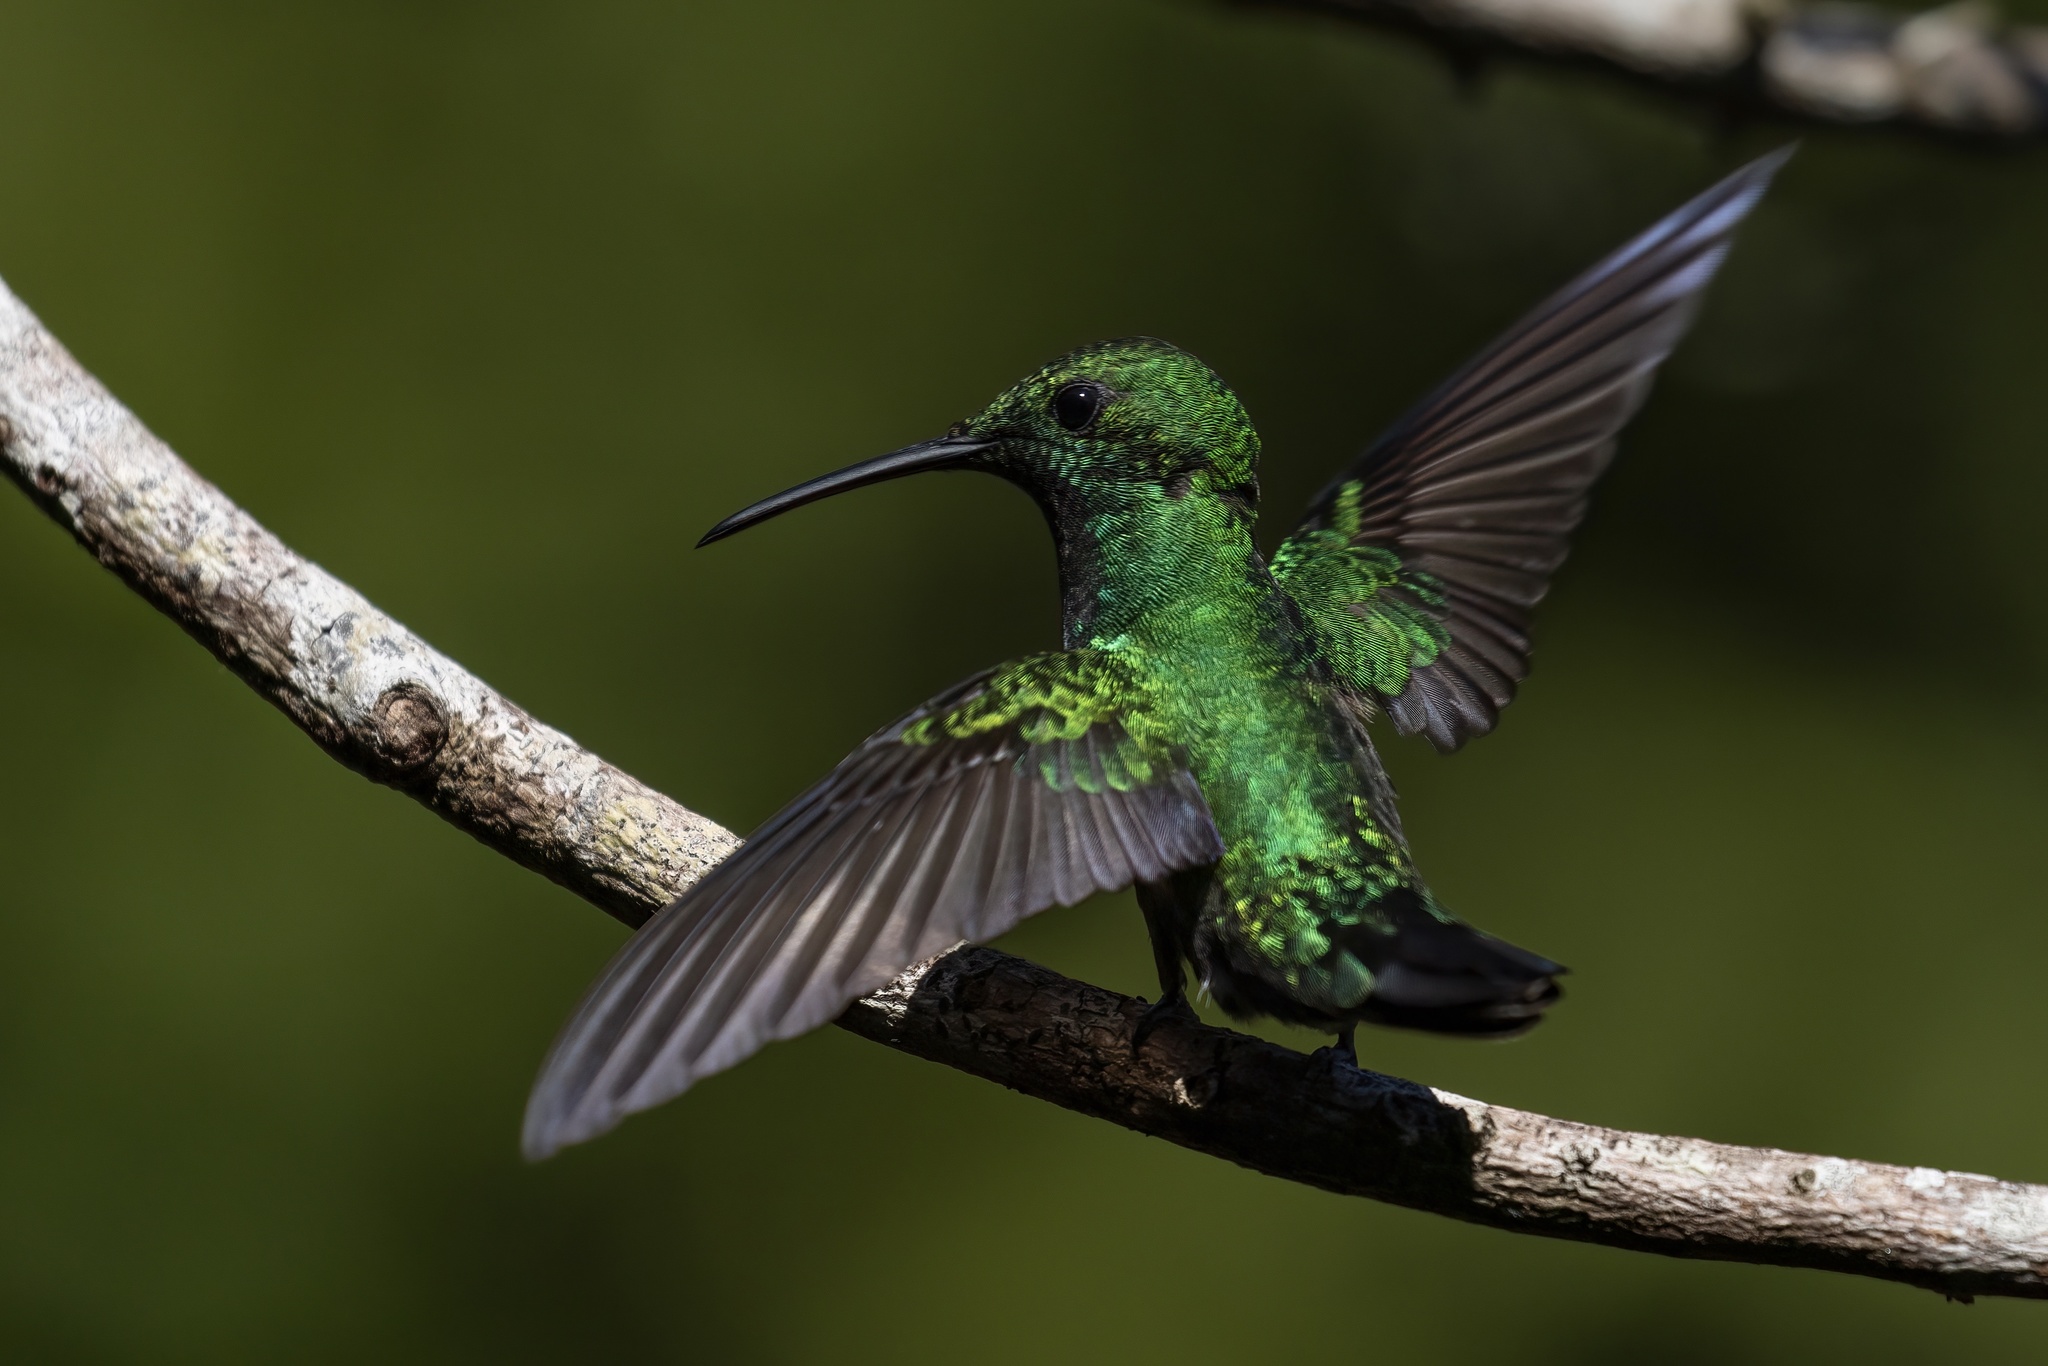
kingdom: Animalia
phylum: Chordata
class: Aves
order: Apodiformes
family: Trochilidae
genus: Anthracothorax
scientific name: Anthracothorax viridis
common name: Green mango
